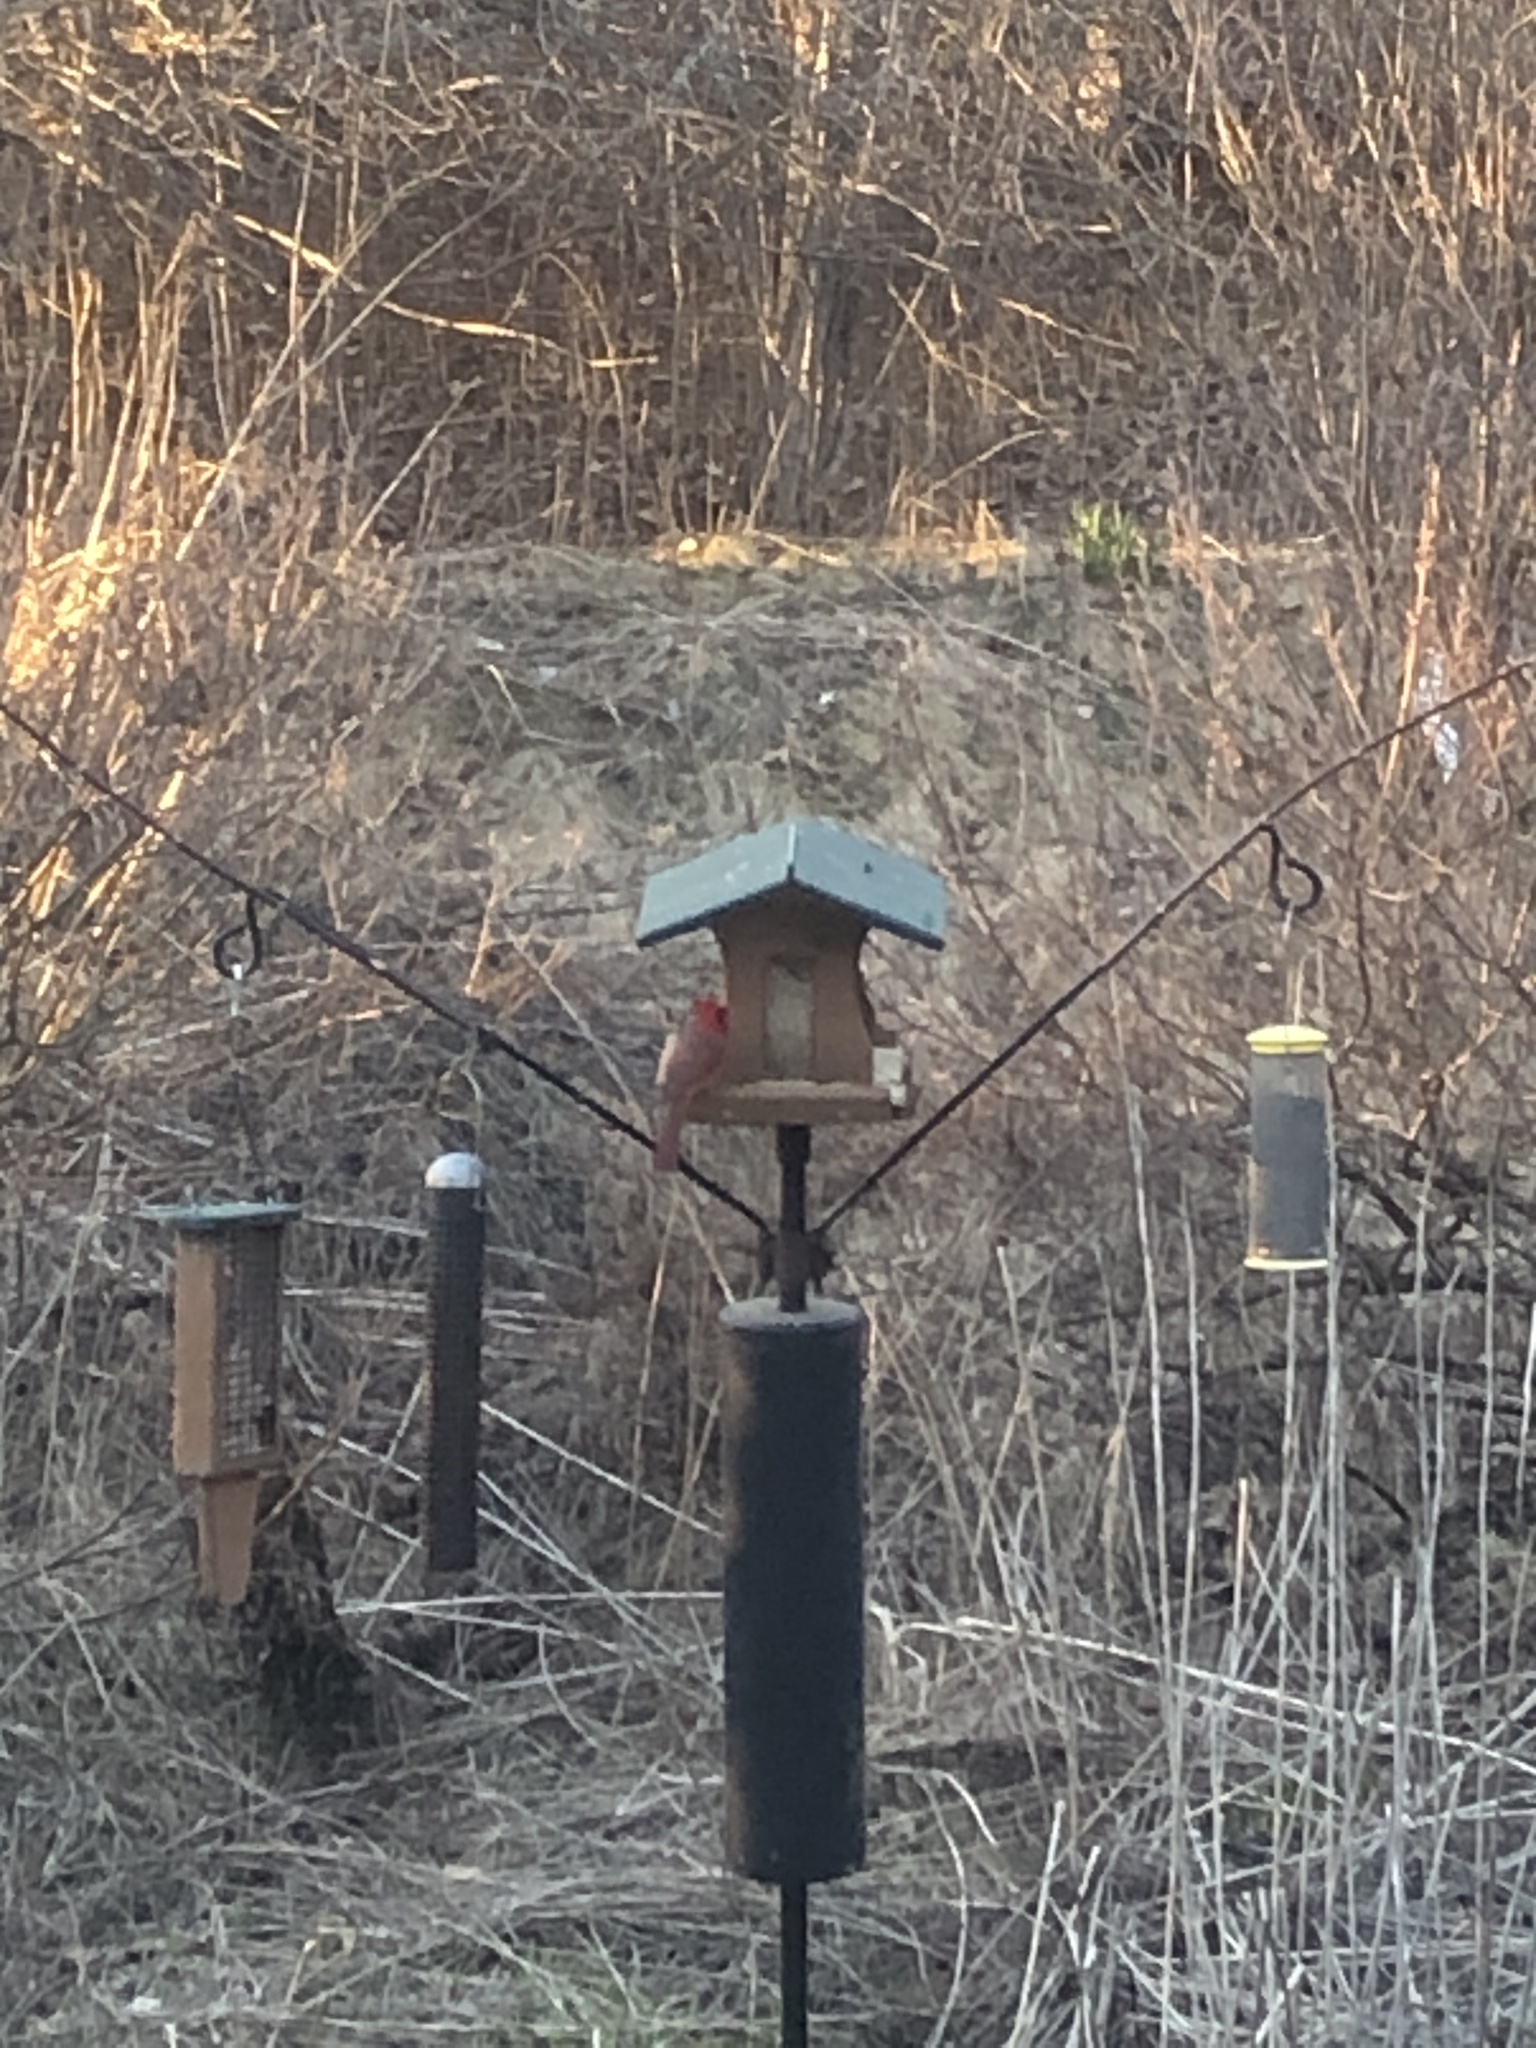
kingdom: Animalia
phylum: Chordata
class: Aves
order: Passeriformes
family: Cardinalidae
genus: Cardinalis
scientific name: Cardinalis cardinalis
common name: Northern cardinal
